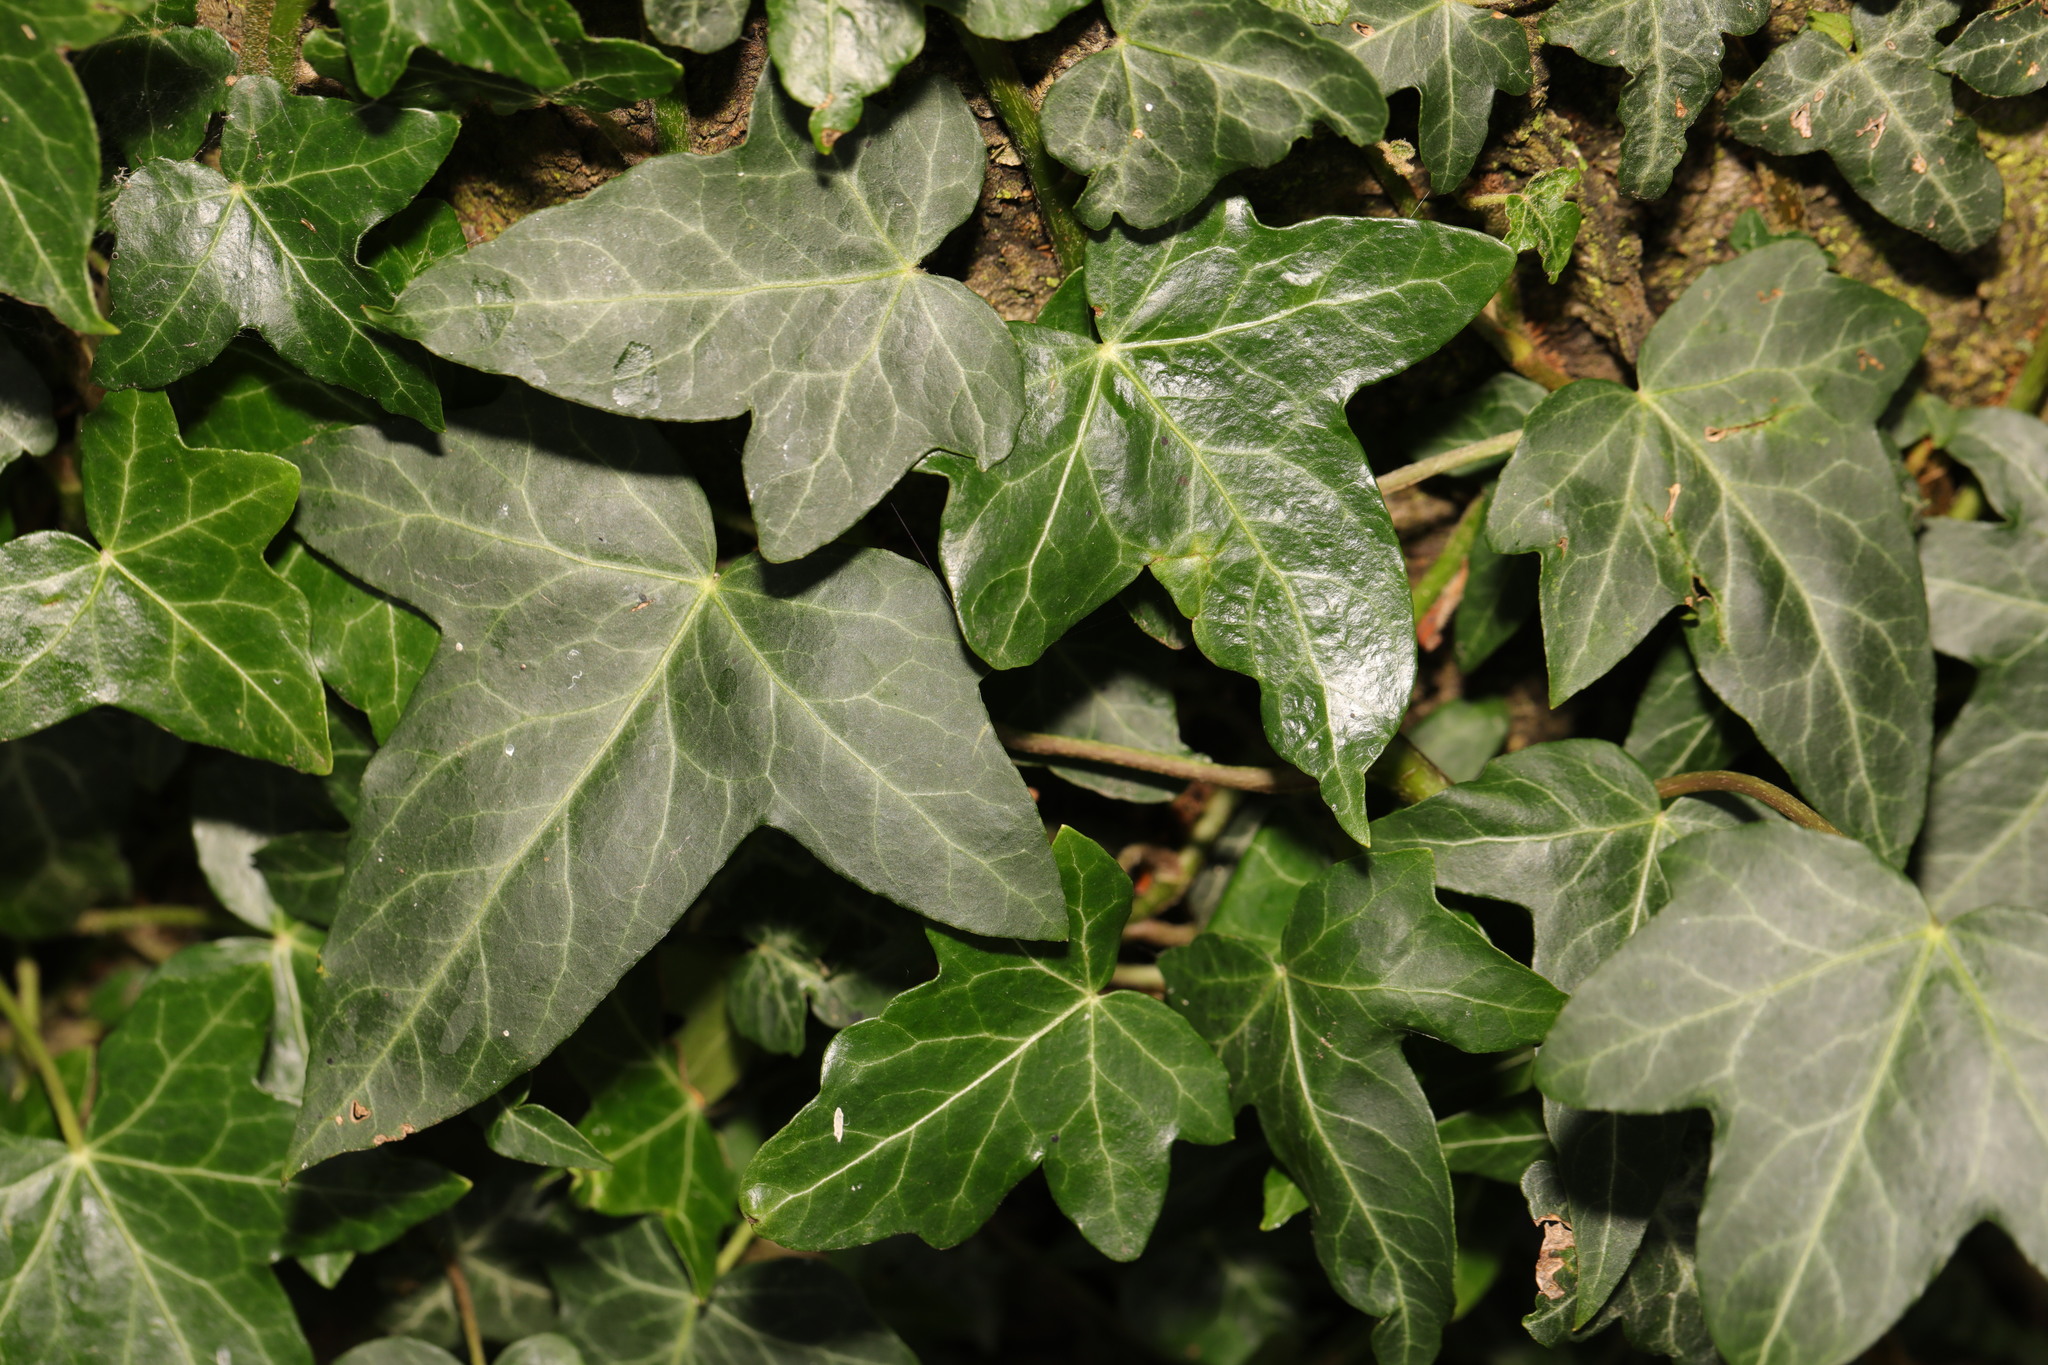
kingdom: Plantae
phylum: Tracheophyta
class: Magnoliopsida
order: Apiales
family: Araliaceae
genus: Hedera
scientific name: Hedera helix
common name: Ivy
